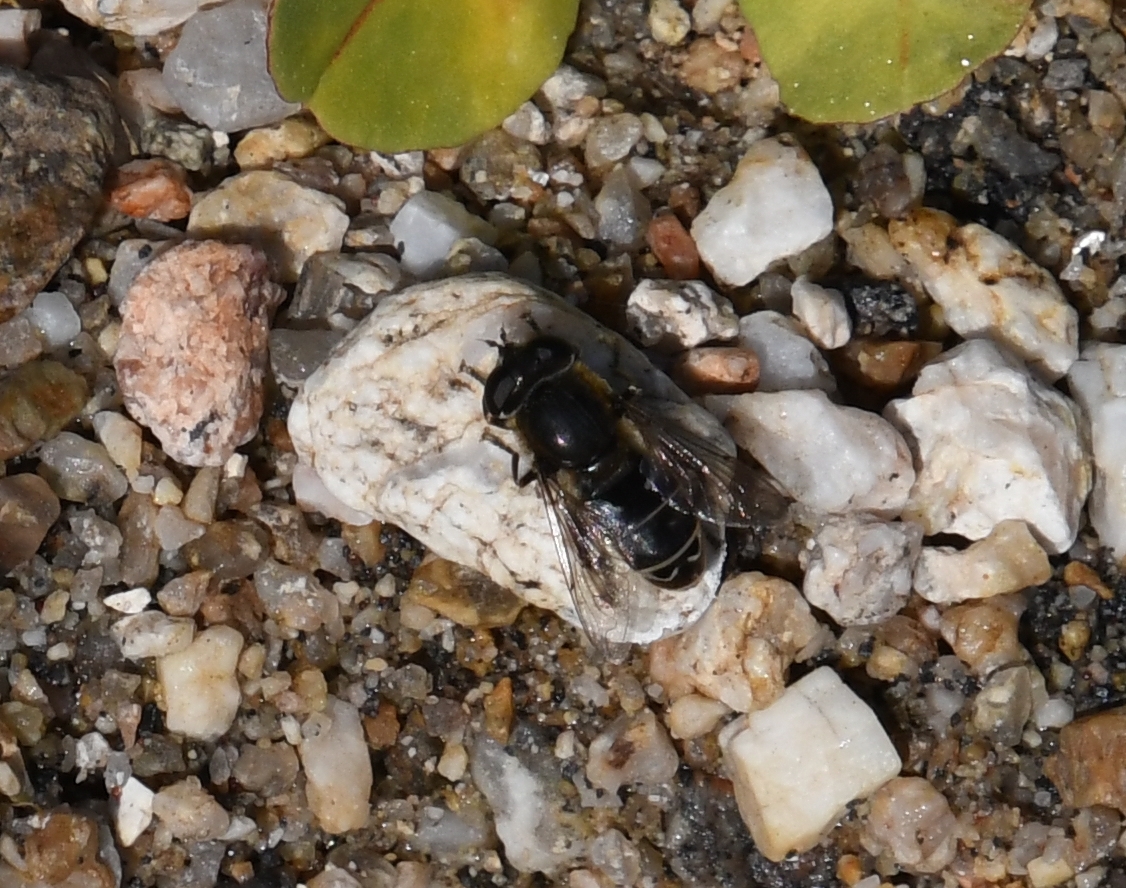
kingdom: Animalia
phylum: Arthropoda
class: Insecta
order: Diptera
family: Syrphidae
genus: Asemosyrphus
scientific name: Asemosyrphus polygrammus
